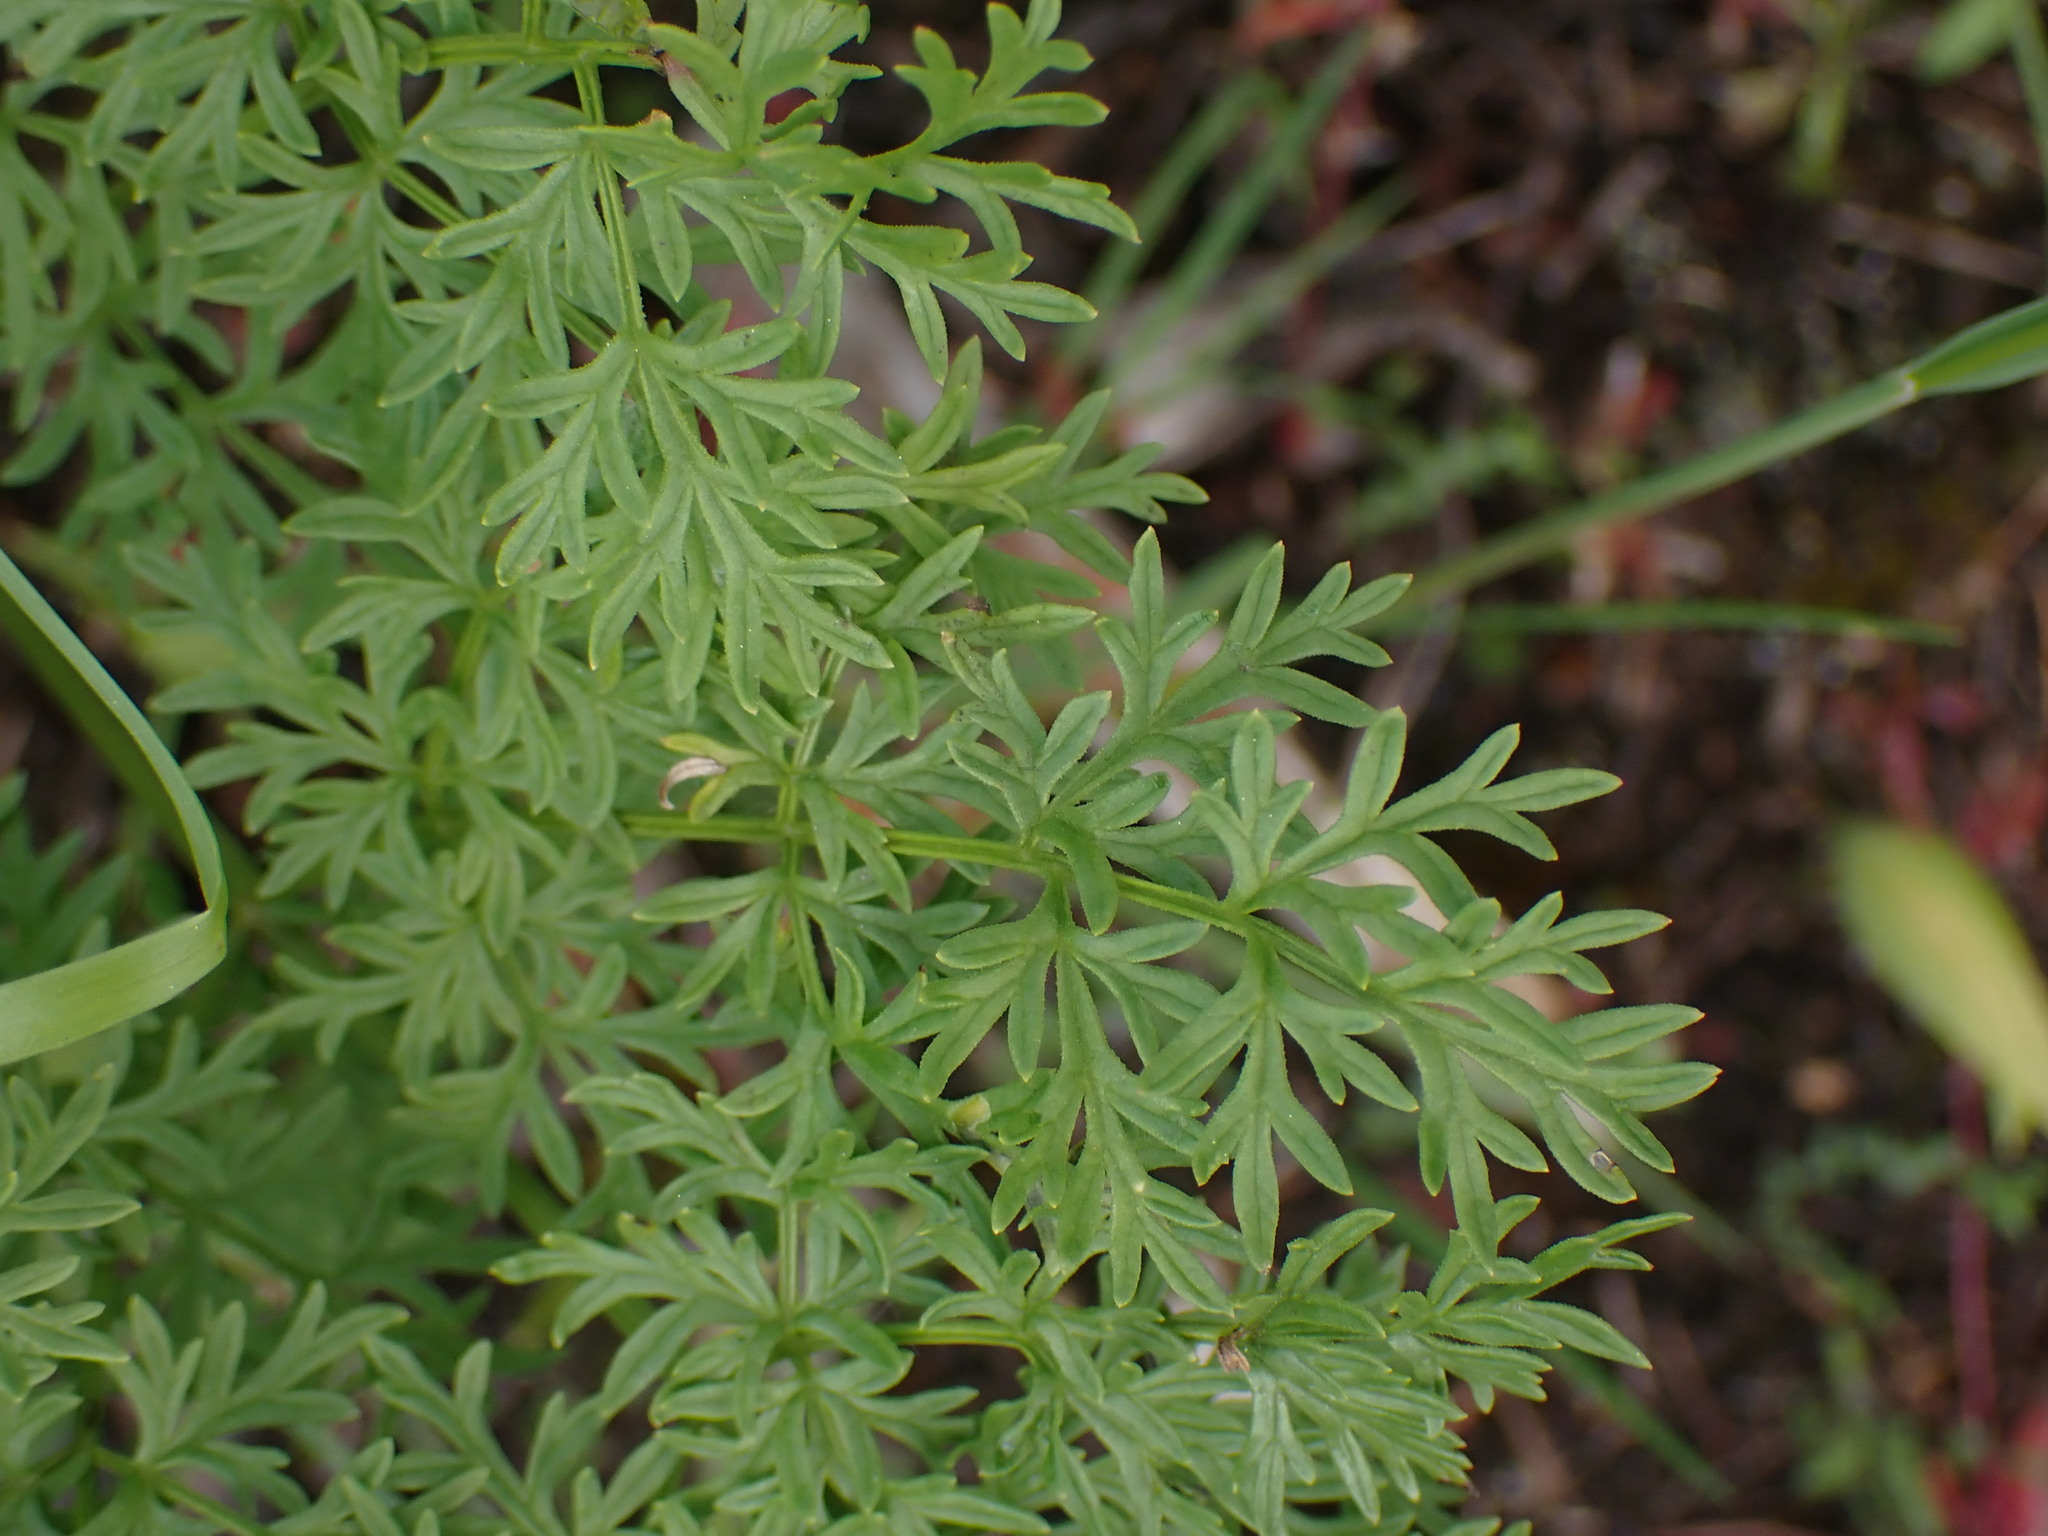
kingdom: Plantae
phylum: Tracheophyta
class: Magnoliopsida
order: Apiales
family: Apiaceae
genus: Lomatium
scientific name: Lomatium multifidum
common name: Carrot-leaved biscuitroot
